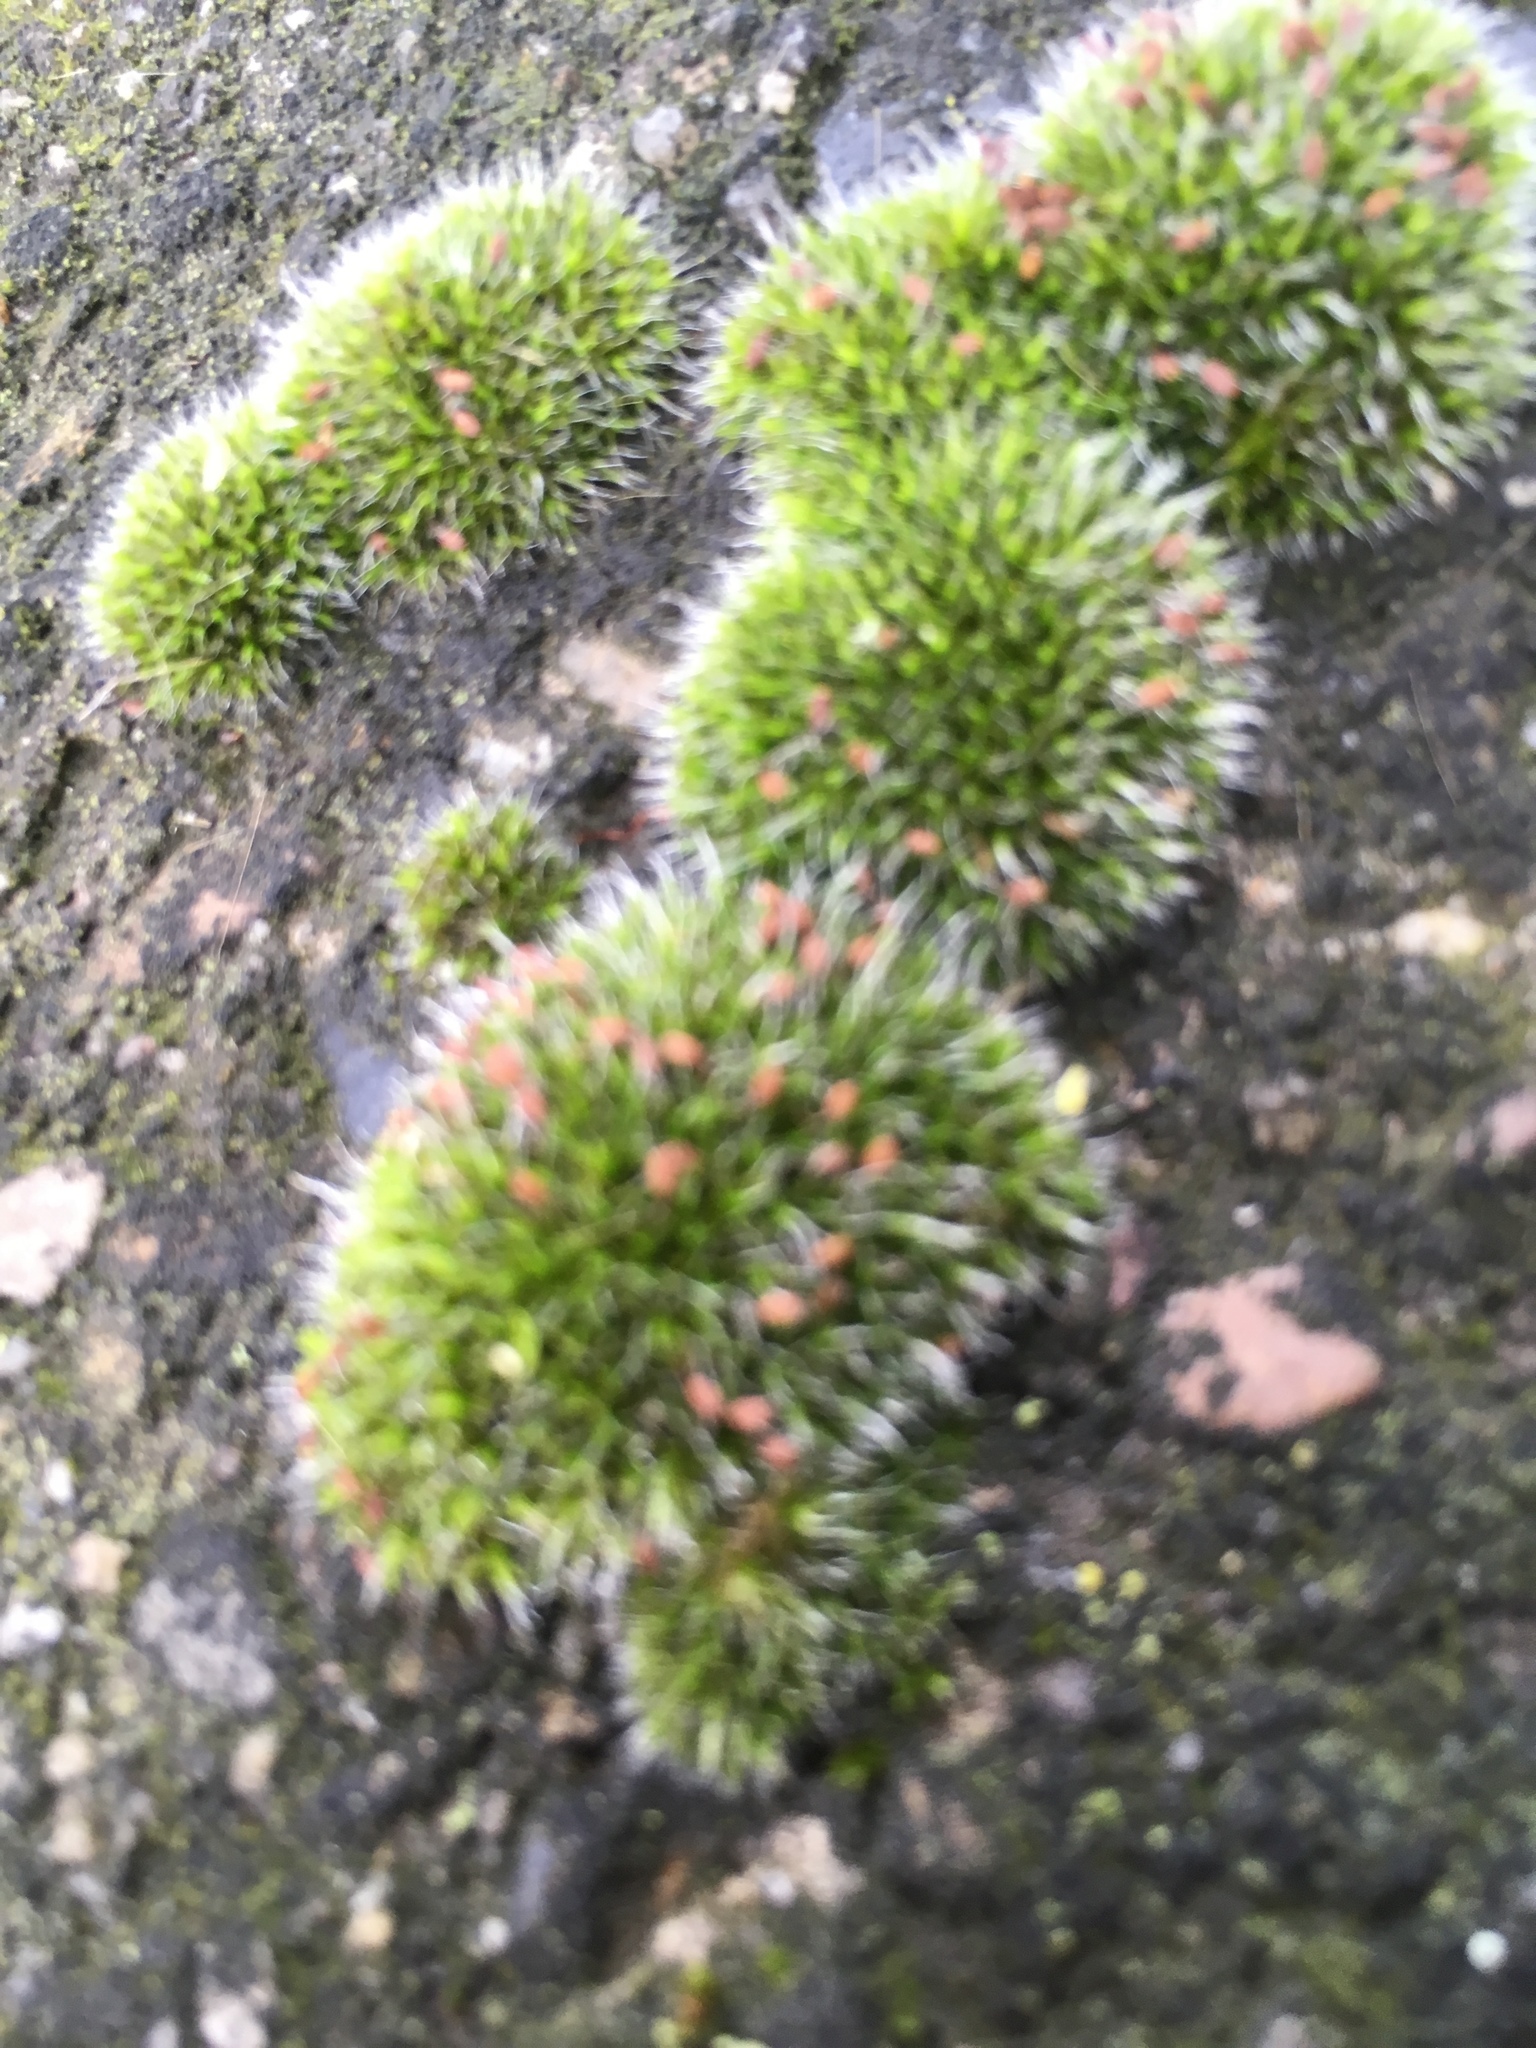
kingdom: Plantae
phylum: Bryophyta
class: Bryopsida
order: Grimmiales
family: Grimmiaceae
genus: Grimmia
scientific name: Grimmia pulvinata
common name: Grey-cushioned grimmia
